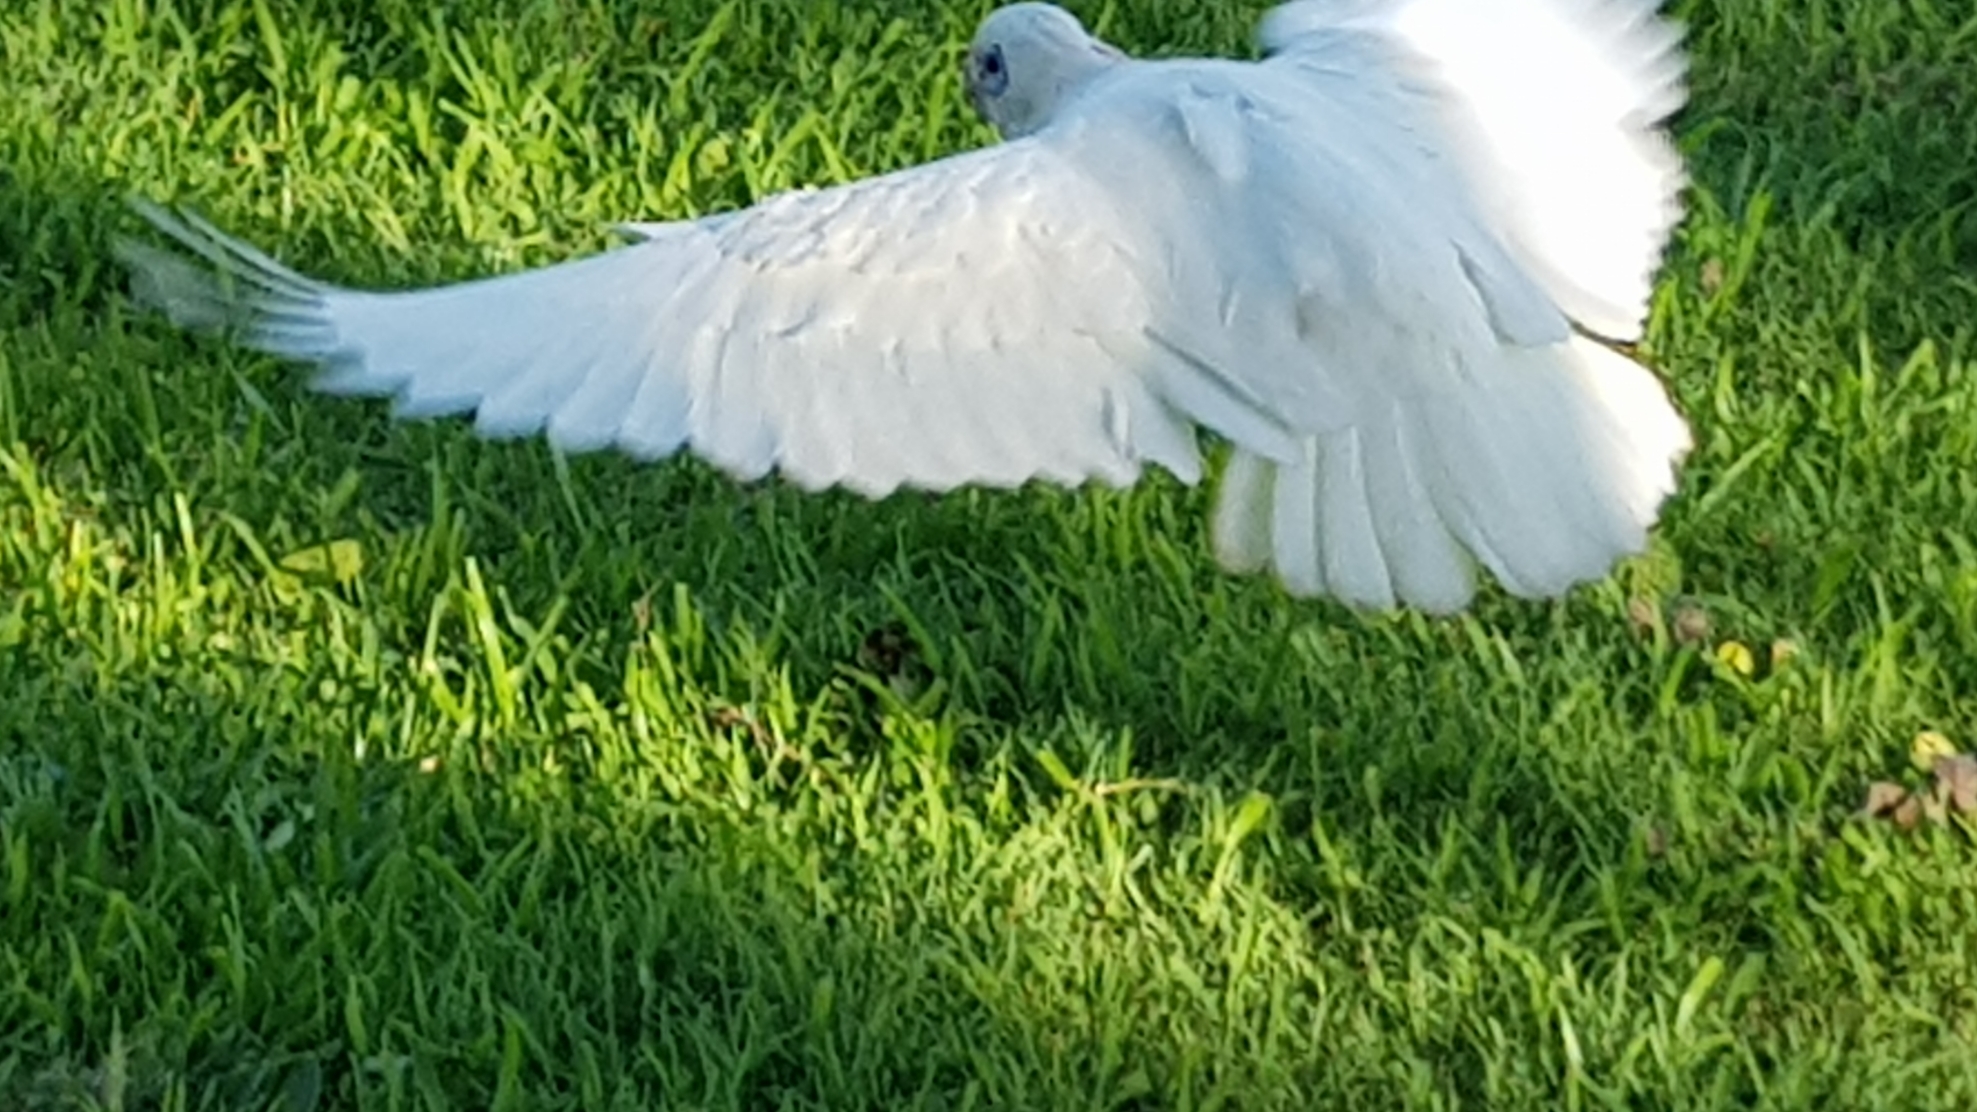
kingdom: Animalia
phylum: Chordata
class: Aves
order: Psittaciformes
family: Psittacidae
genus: Cacatua
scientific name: Cacatua sanguinea
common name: Little corella
